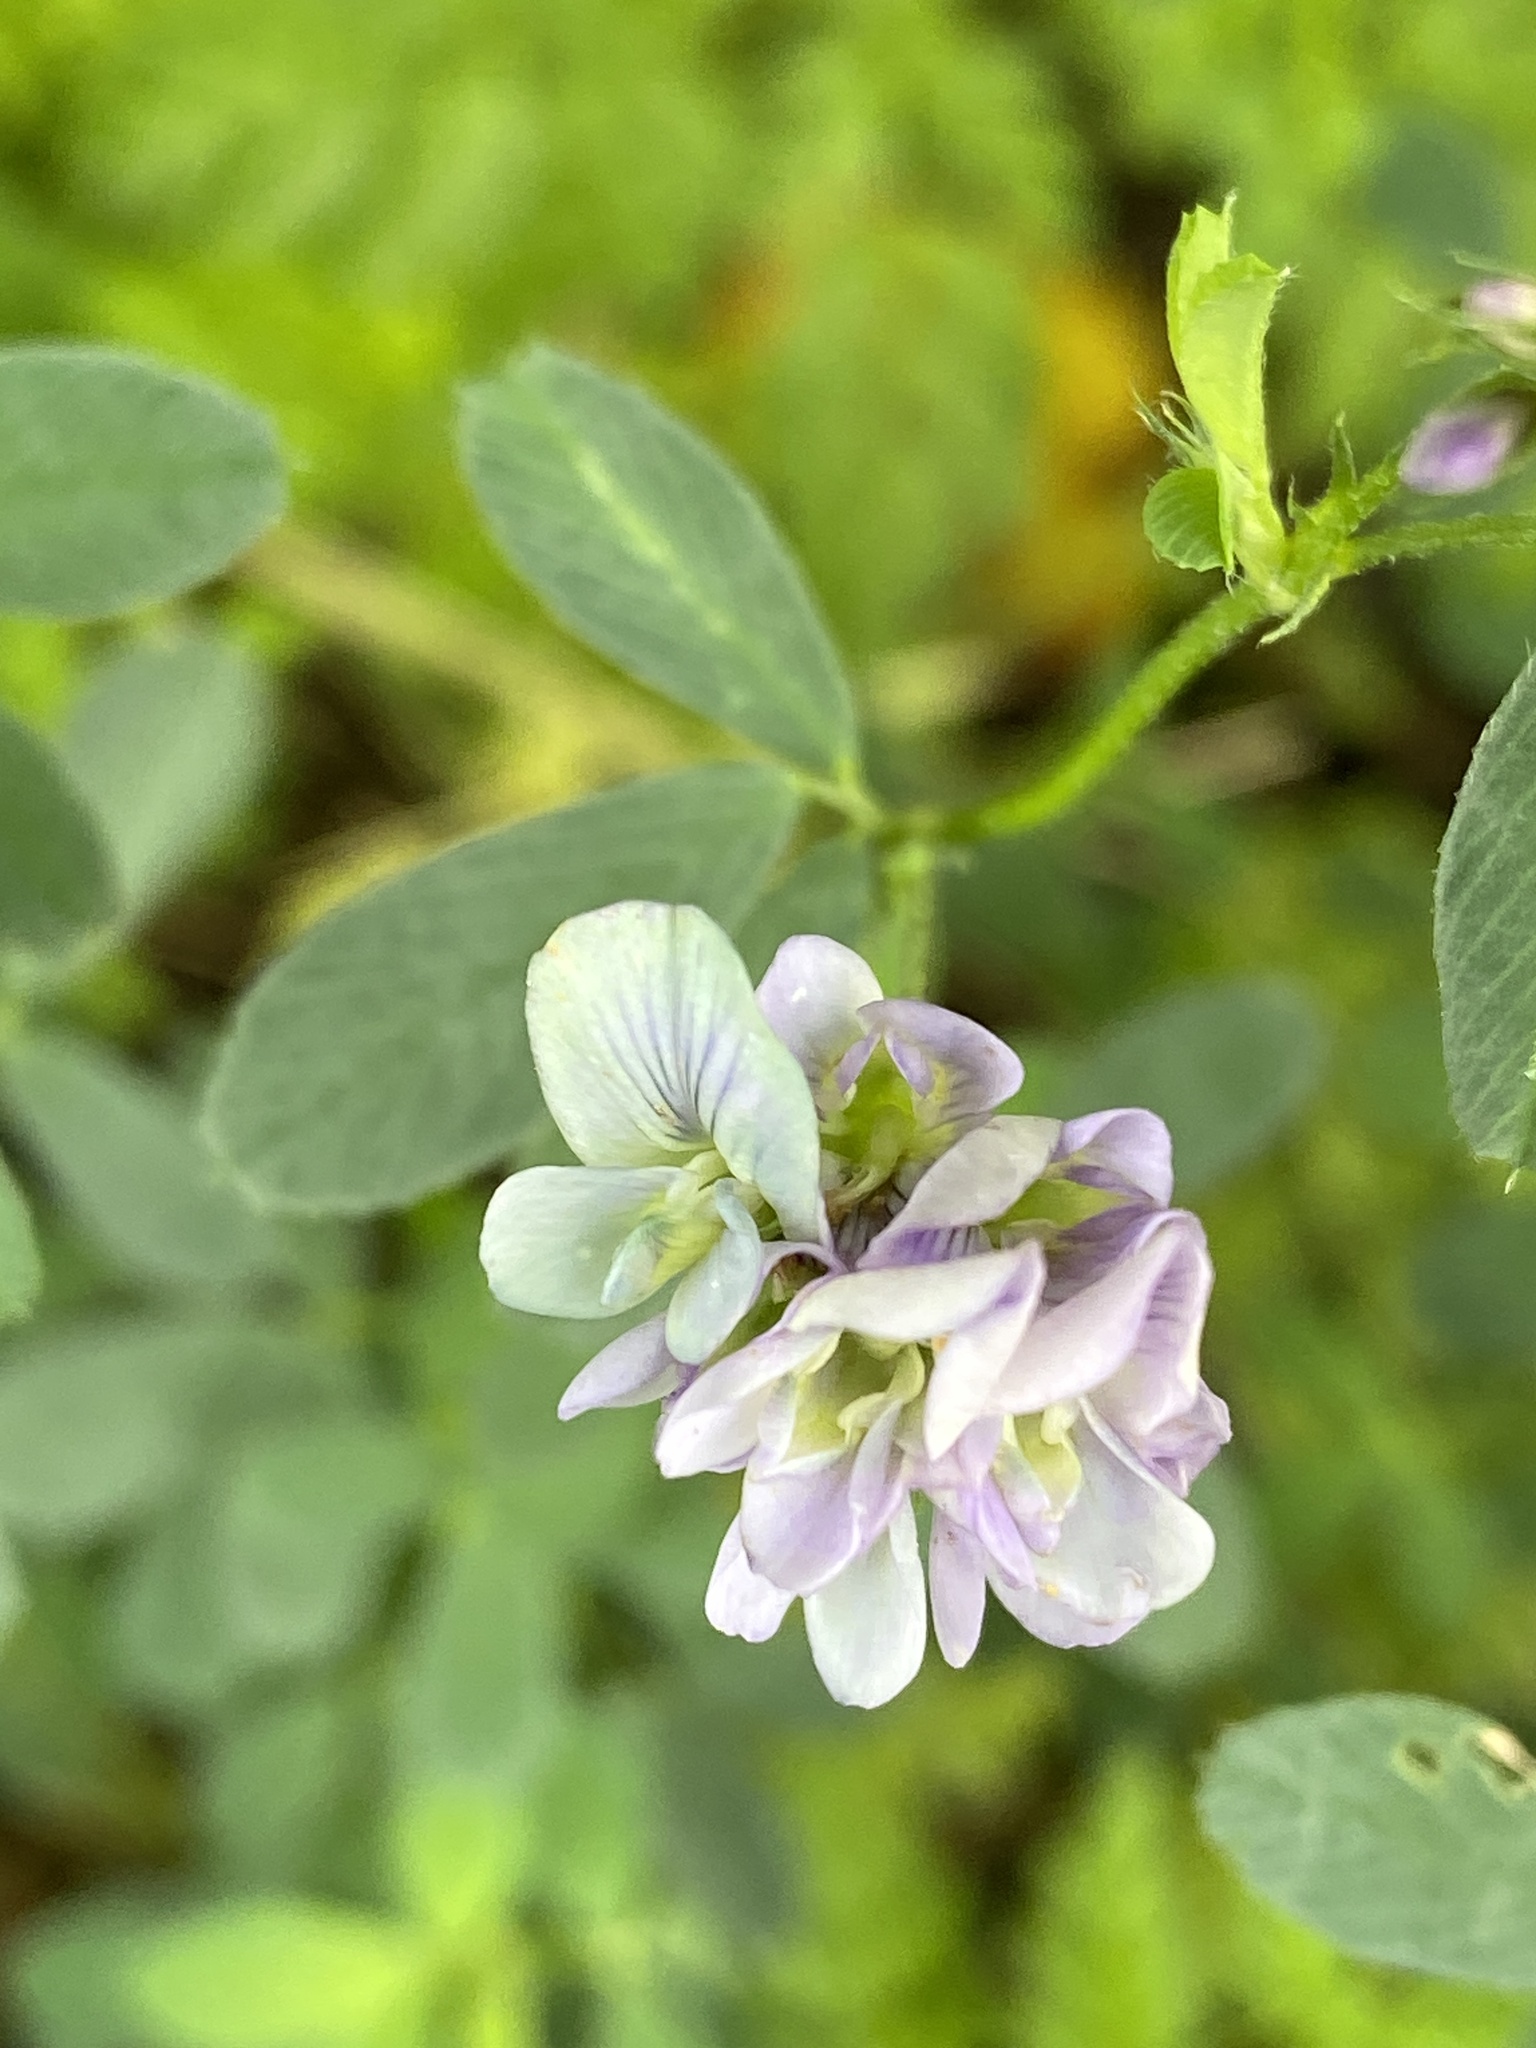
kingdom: Plantae
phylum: Tracheophyta
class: Magnoliopsida
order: Fabales
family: Fabaceae
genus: Medicago
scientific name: Medicago sativa
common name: Alfalfa
